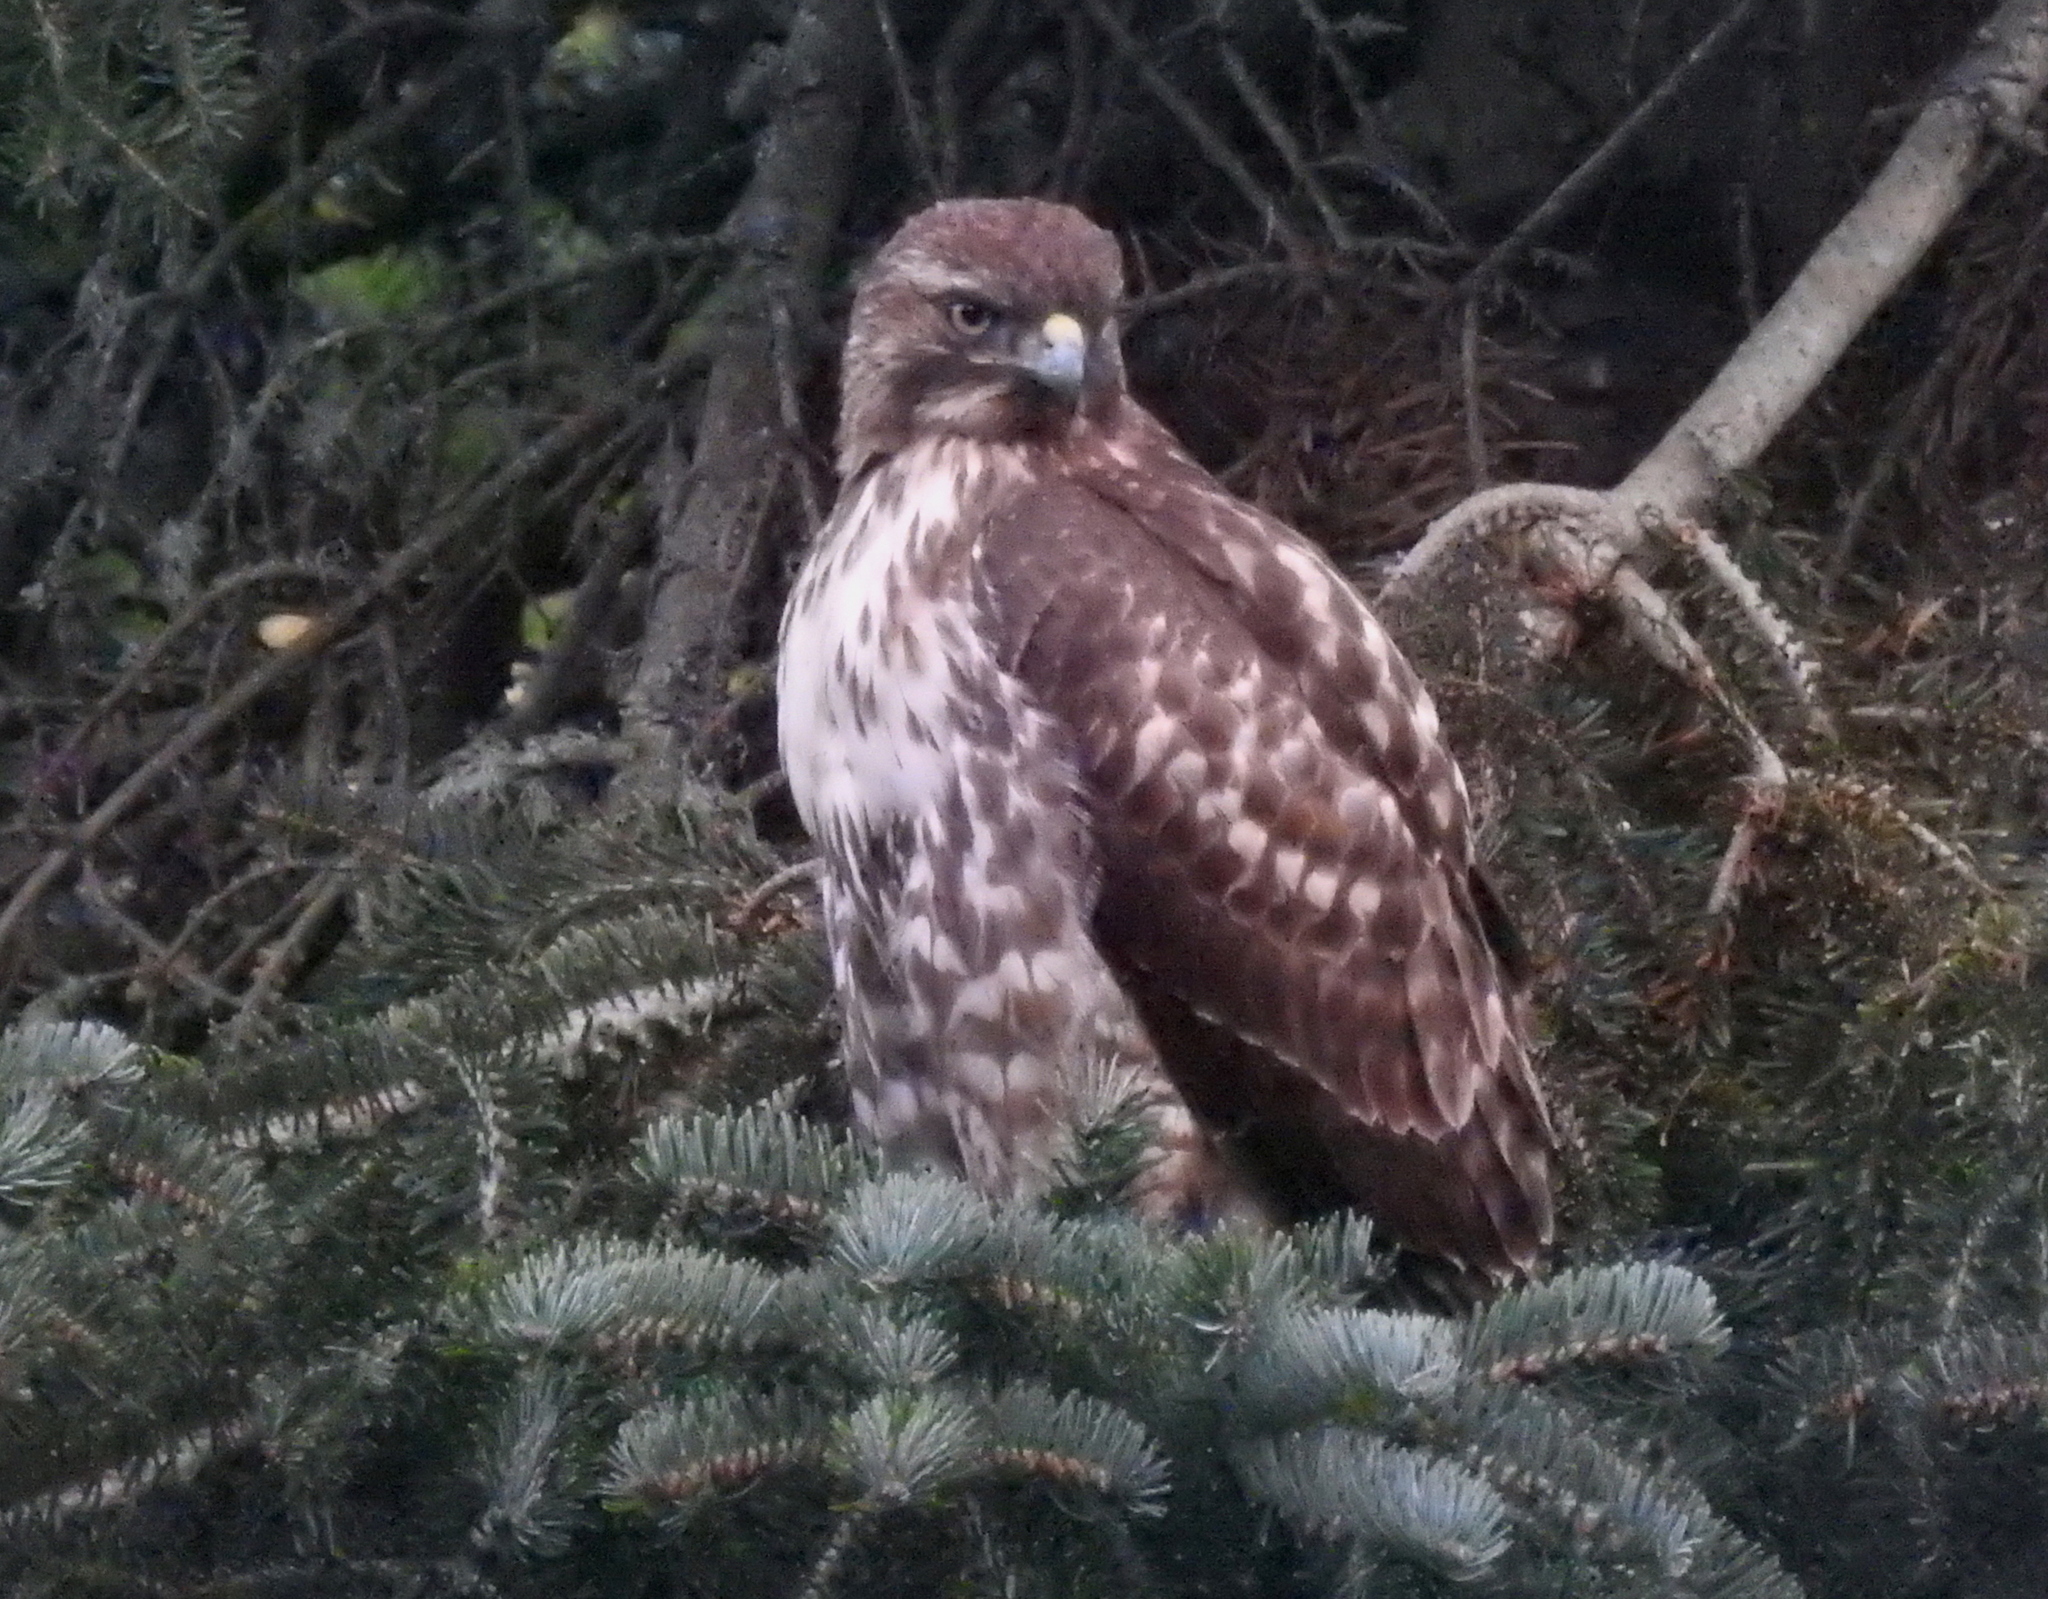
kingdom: Animalia
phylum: Chordata
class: Aves
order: Accipitriformes
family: Accipitridae
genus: Buteo
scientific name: Buteo jamaicensis
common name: Red-tailed hawk
